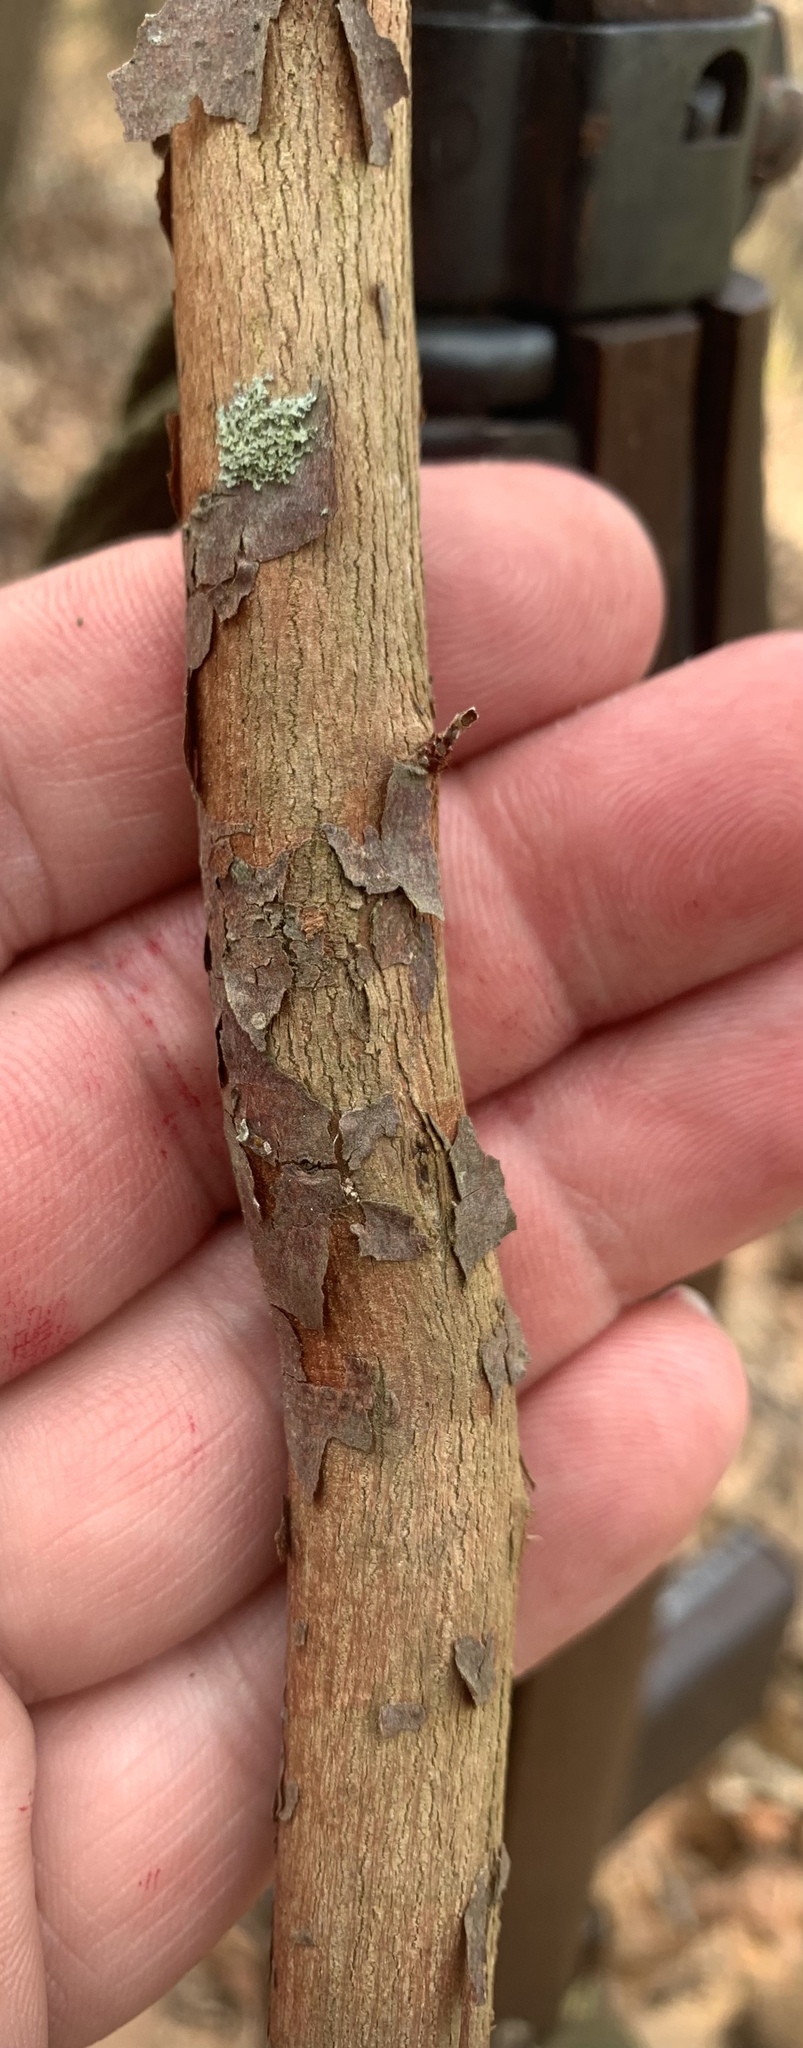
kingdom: Plantae
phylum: Tracheophyta
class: Magnoliopsida
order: Ericales
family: Ericaceae
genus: Vaccinium
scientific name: Vaccinium arboreum
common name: Farkleberry
